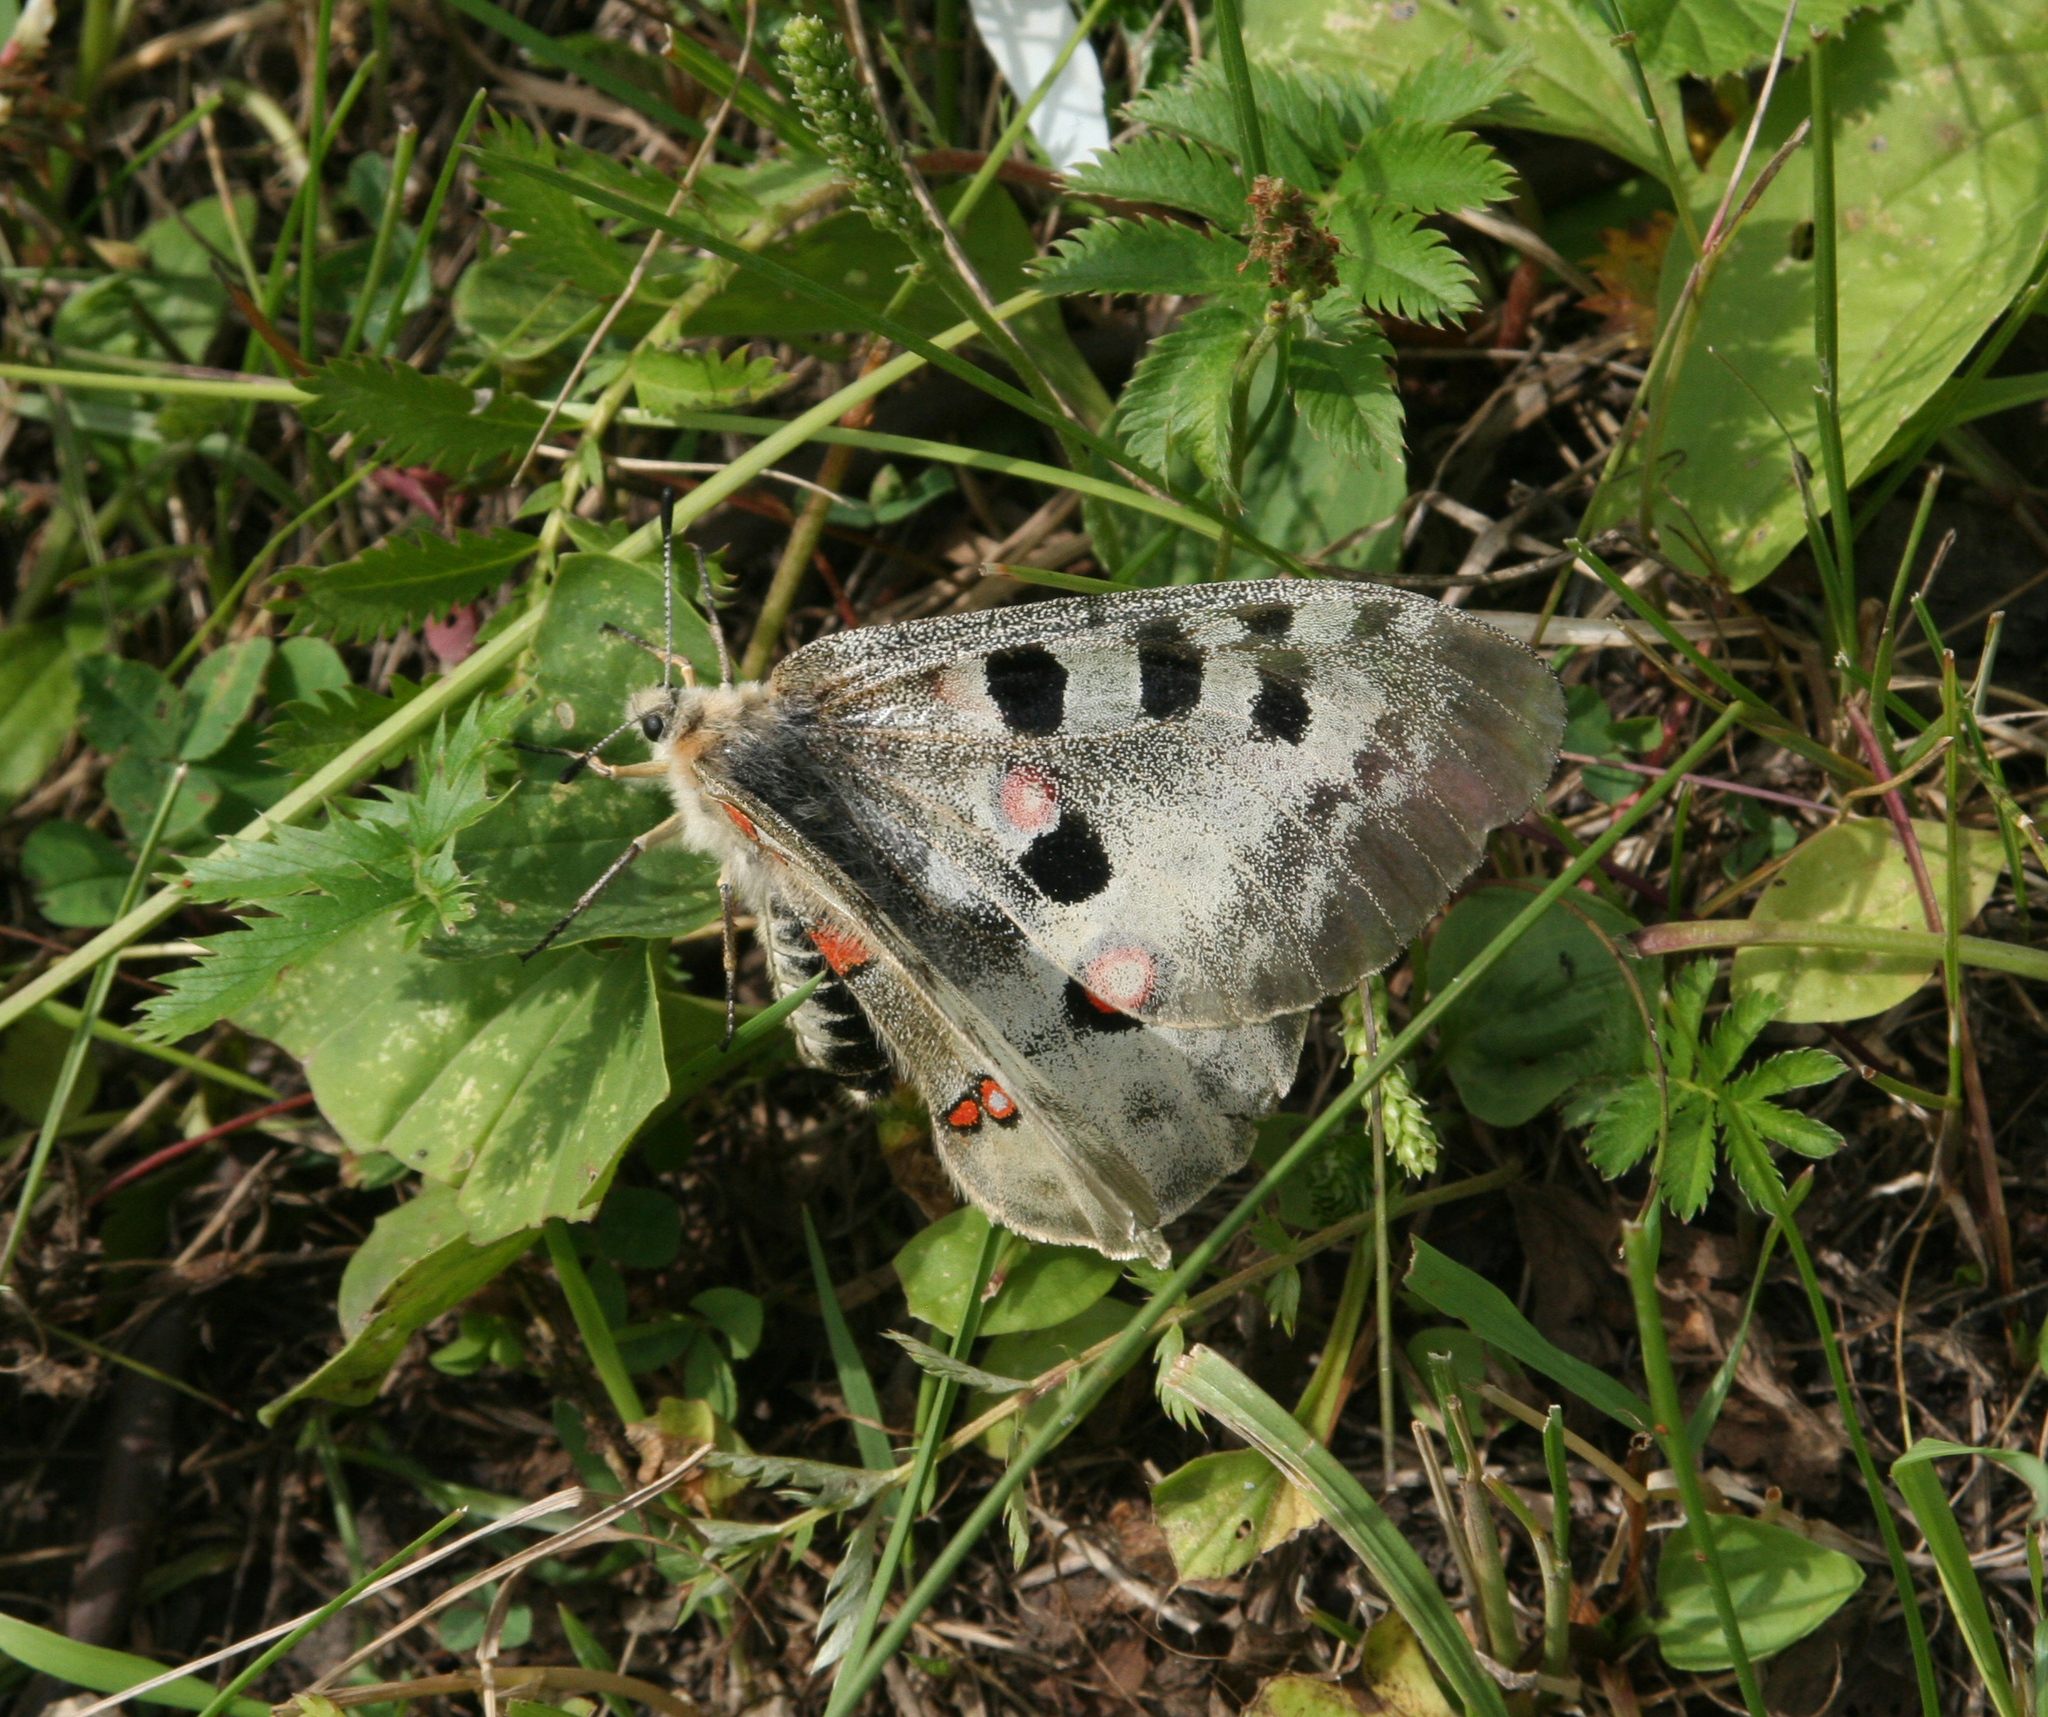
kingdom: Animalia
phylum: Arthropoda
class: Insecta
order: Lepidoptera
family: Papilionidae
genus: Parnassius
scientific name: Parnassius apollo
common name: Apollo
